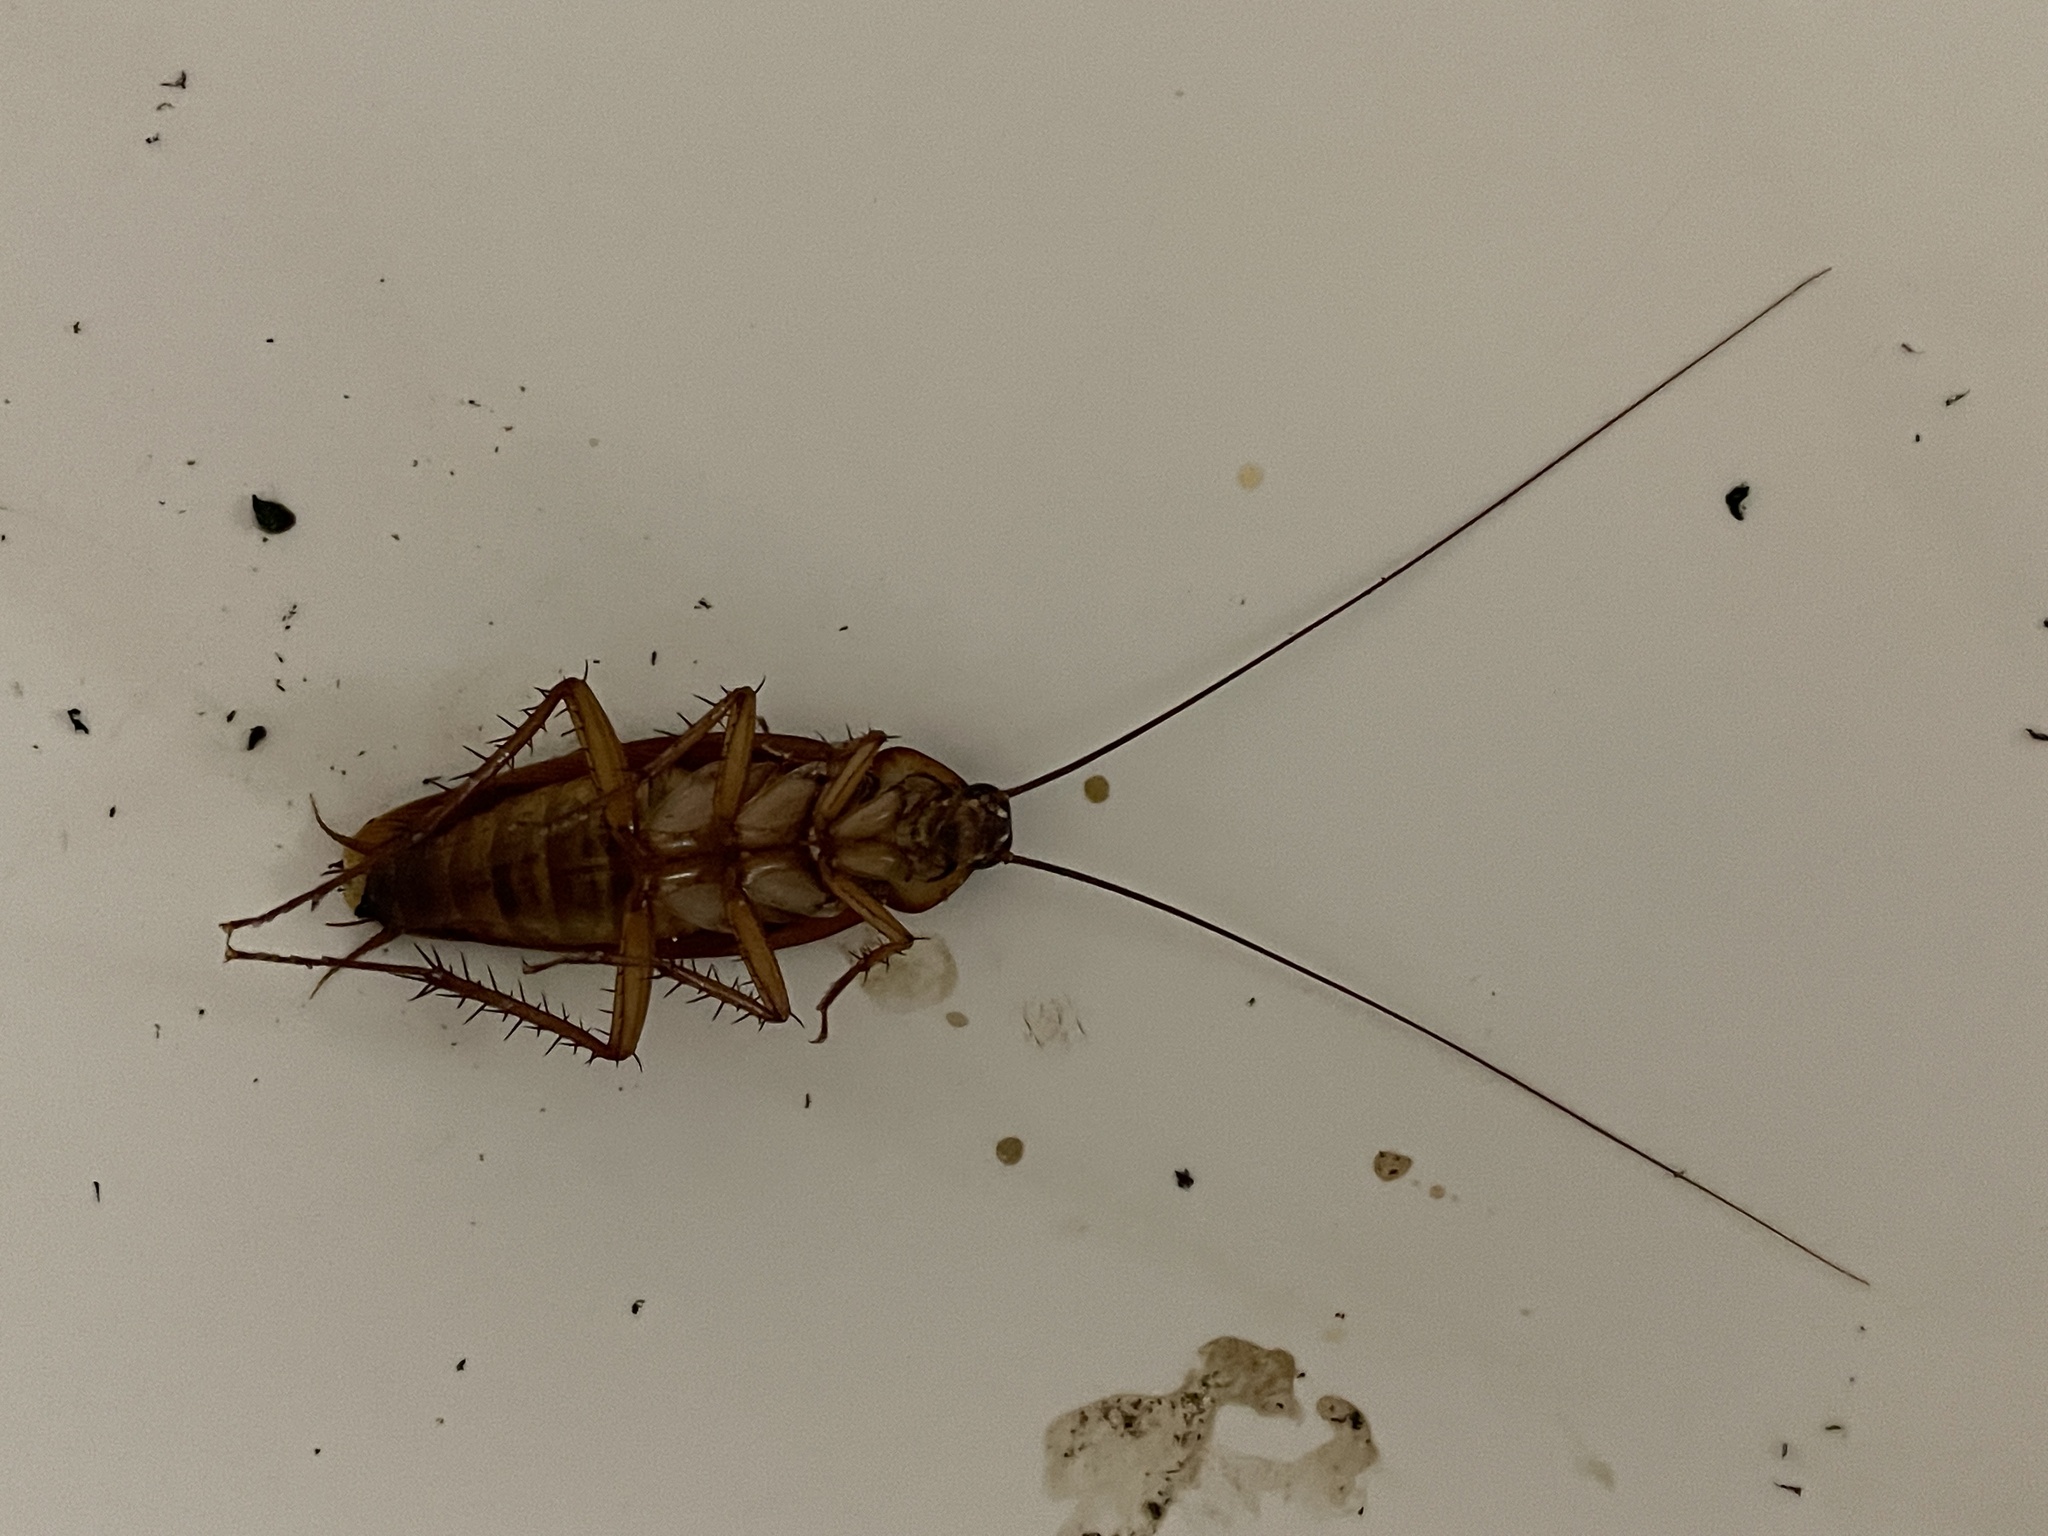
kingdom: Animalia
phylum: Arthropoda
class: Insecta
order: Blattodea
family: Blattidae
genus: Periplaneta
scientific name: Periplaneta americana
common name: American cockroach
